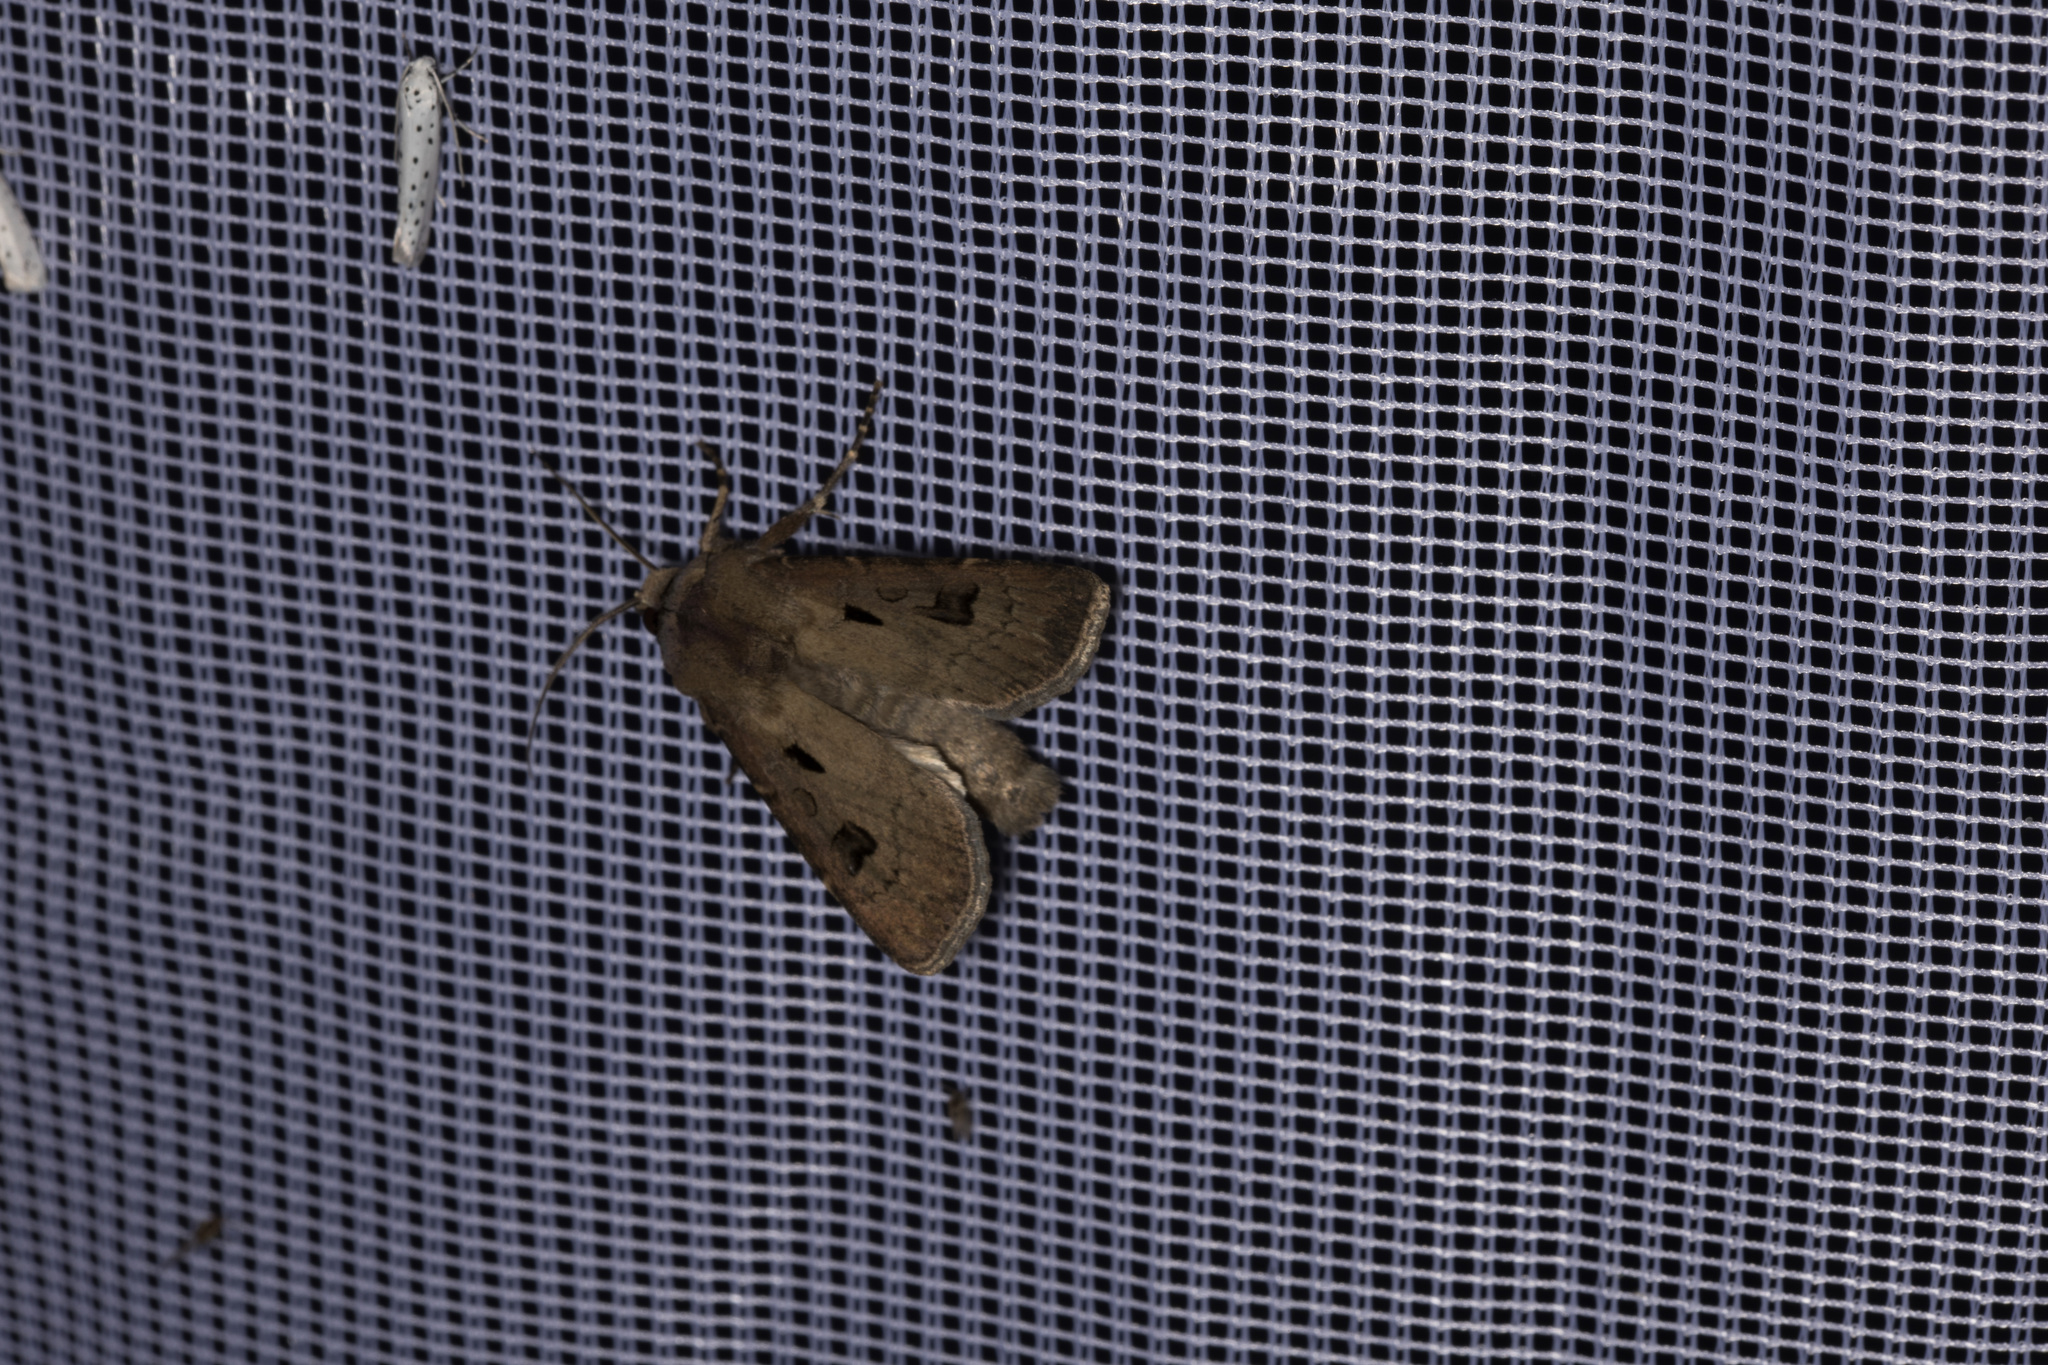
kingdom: Animalia
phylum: Arthropoda
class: Insecta
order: Lepidoptera
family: Noctuidae
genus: Agrotis
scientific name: Agrotis exclamationis
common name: Heart and dart
